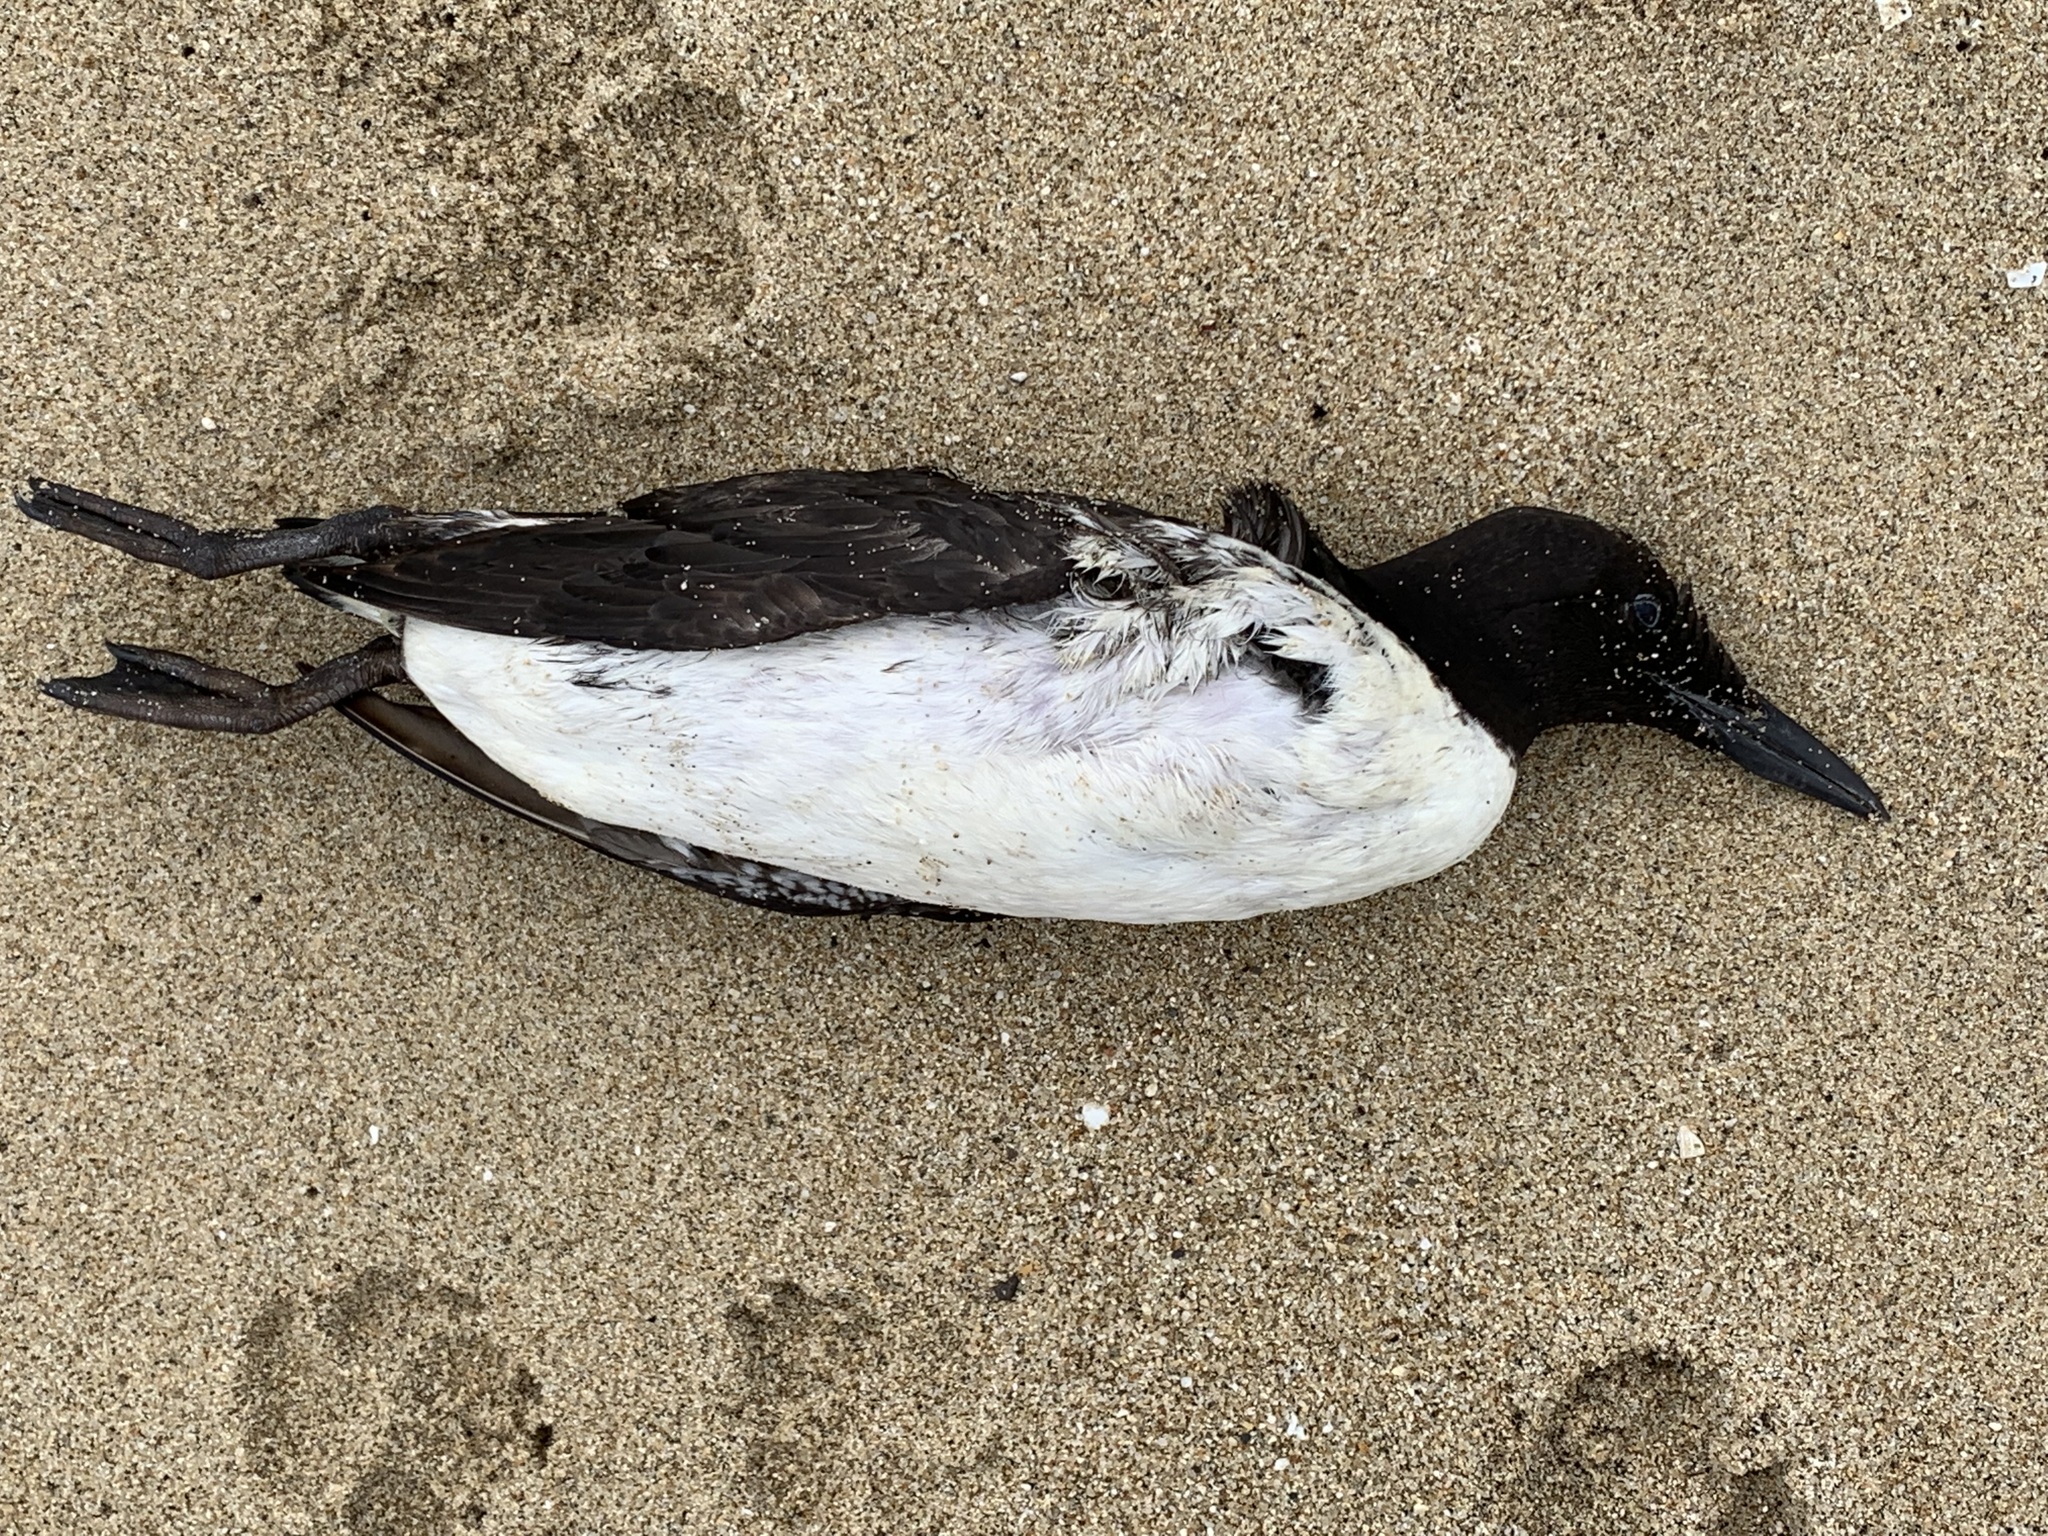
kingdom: Animalia
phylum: Chordata
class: Aves
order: Charadriiformes
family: Alcidae
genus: Uria
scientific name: Uria aalge
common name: Common murre
